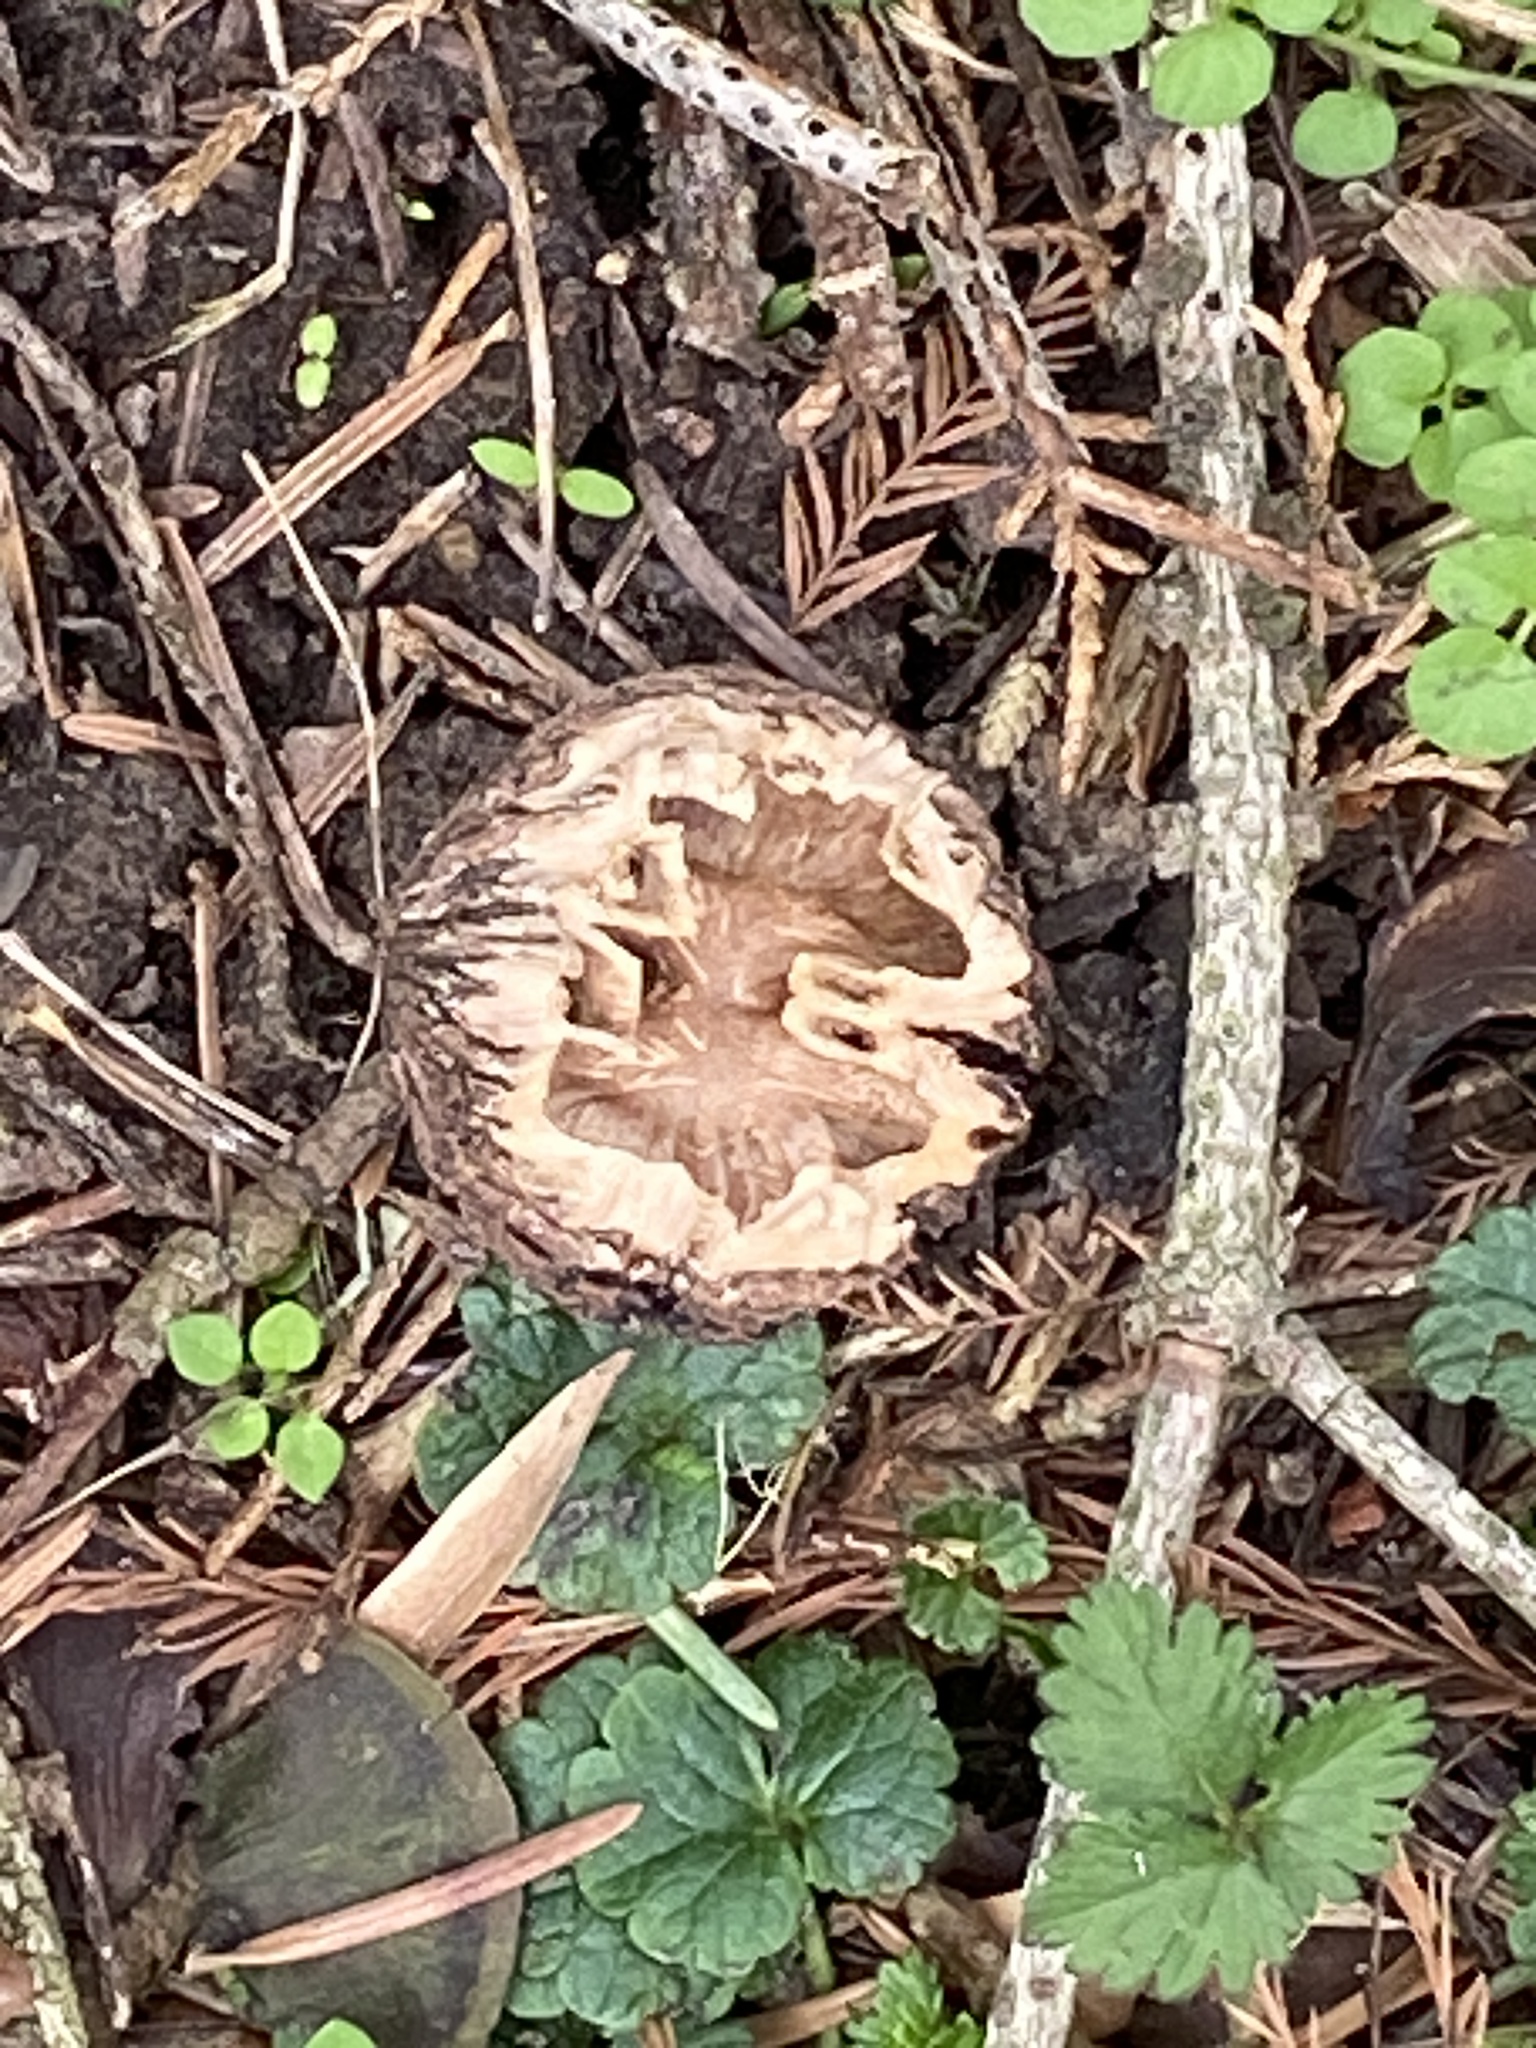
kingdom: Plantae
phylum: Tracheophyta
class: Magnoliopsida
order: Fagales
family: Juglandaceae
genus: Juglans
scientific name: Juglans nigra
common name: Black walnut
